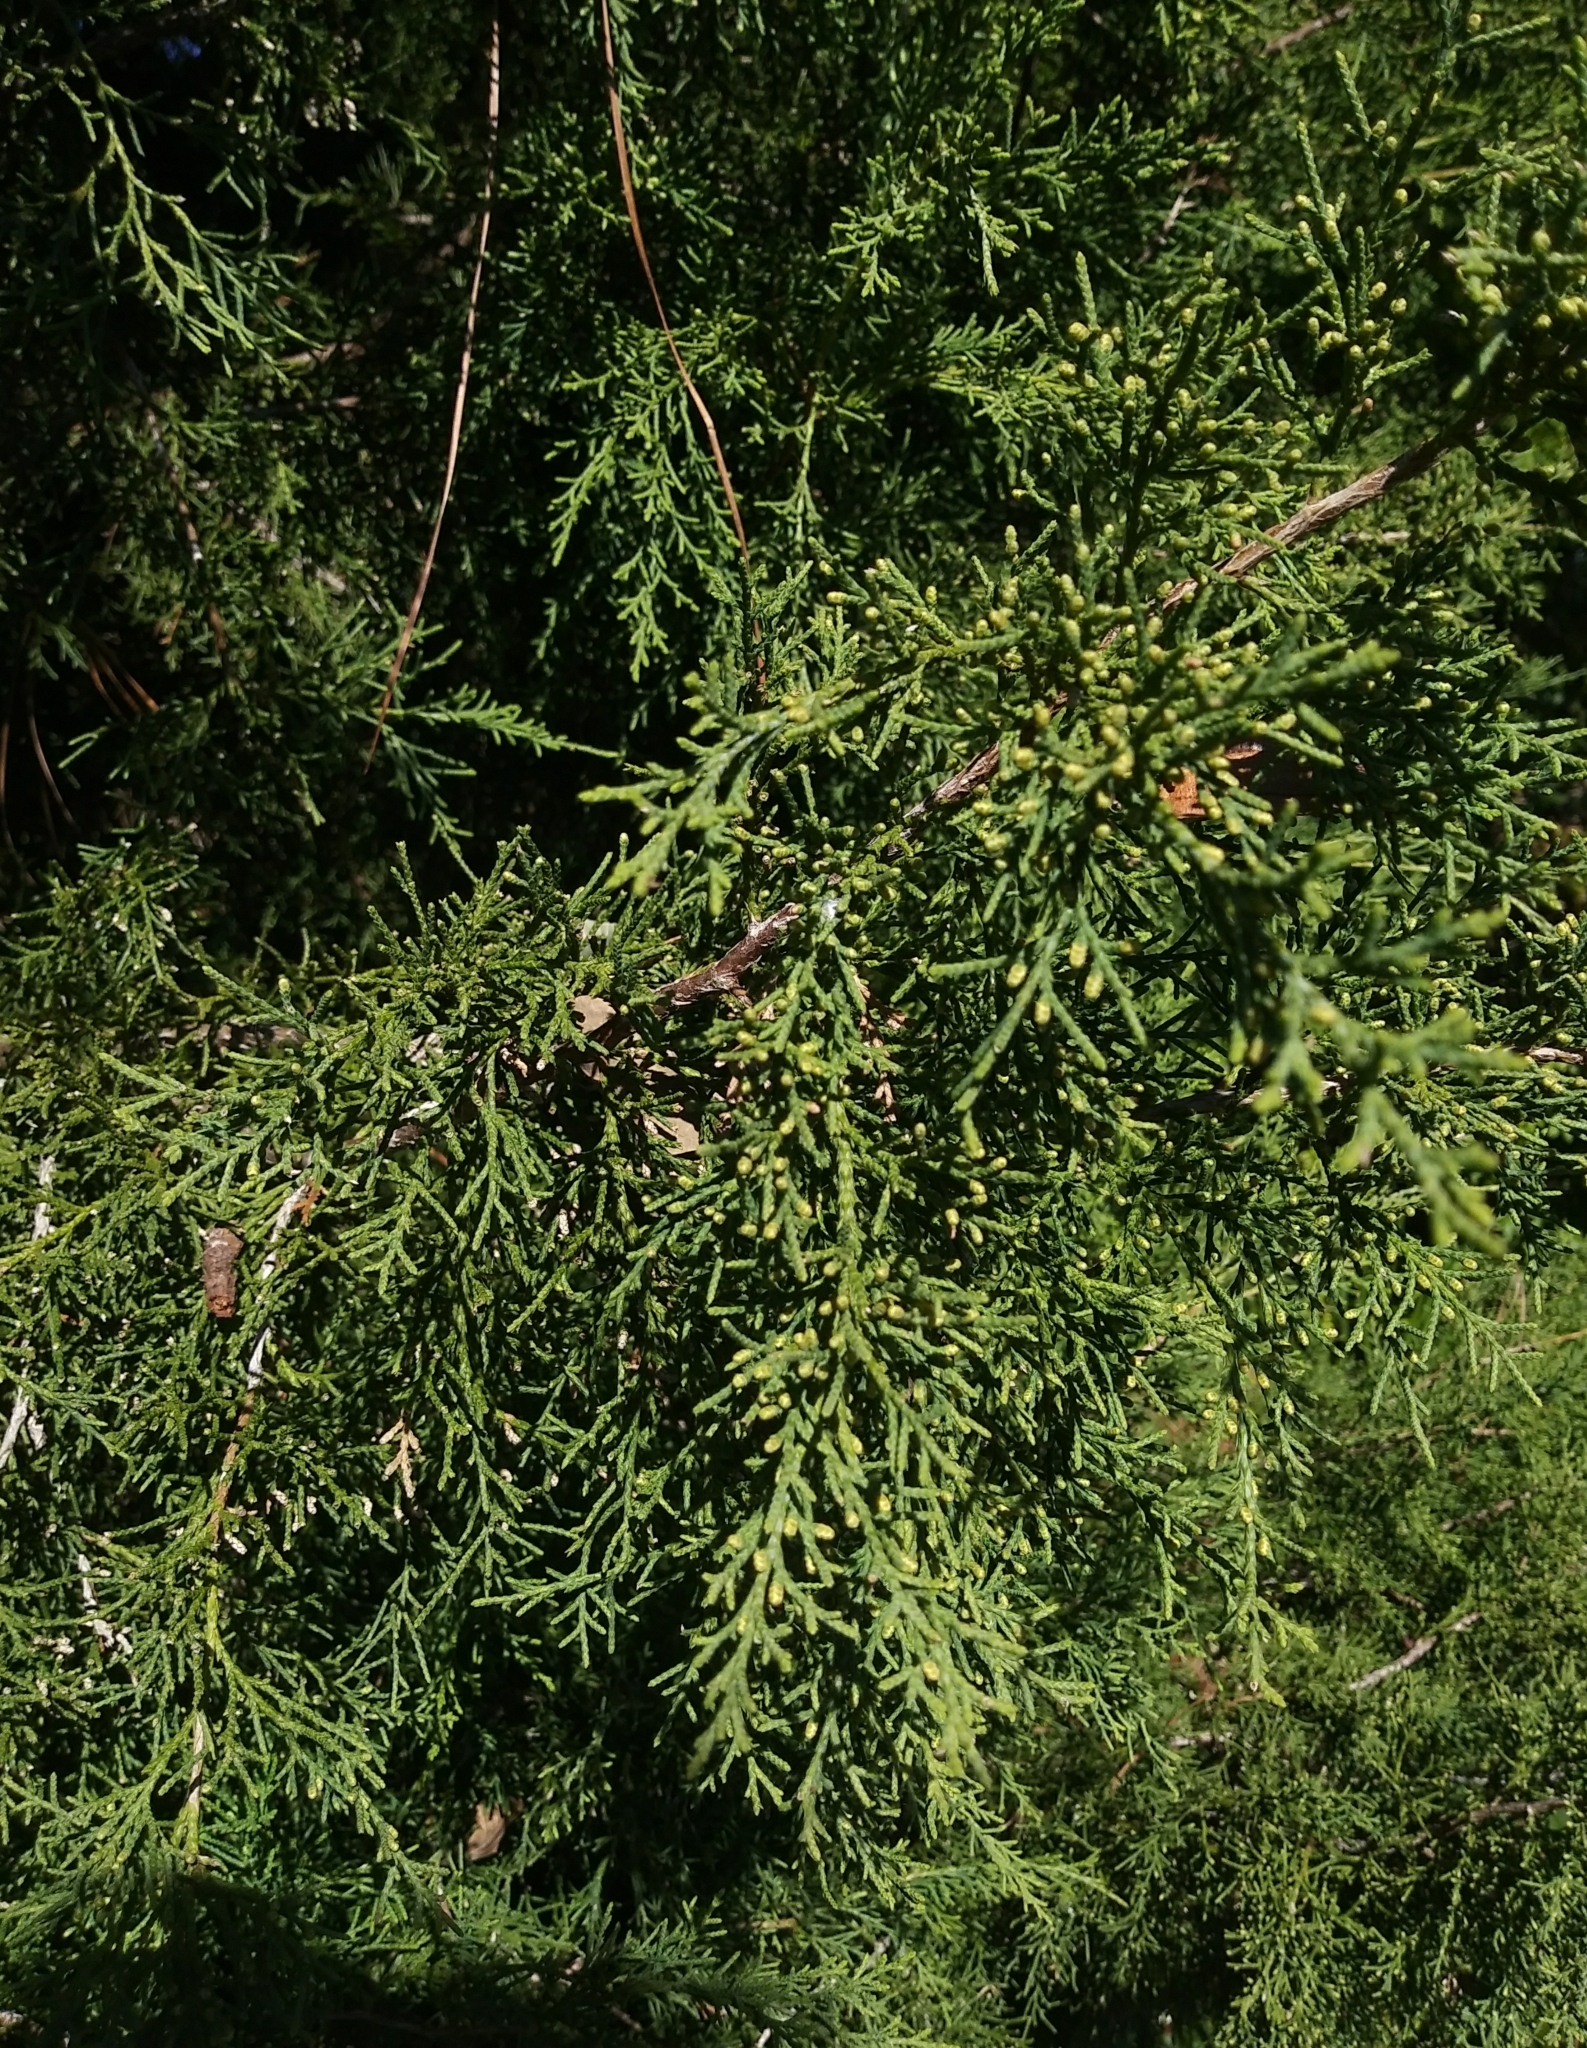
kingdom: Plantae
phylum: Tracheophyta
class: Pinopsida
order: Pinales
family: Cupressaceae
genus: Juniperus
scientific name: Juniperus virginiana
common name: Red juniper
